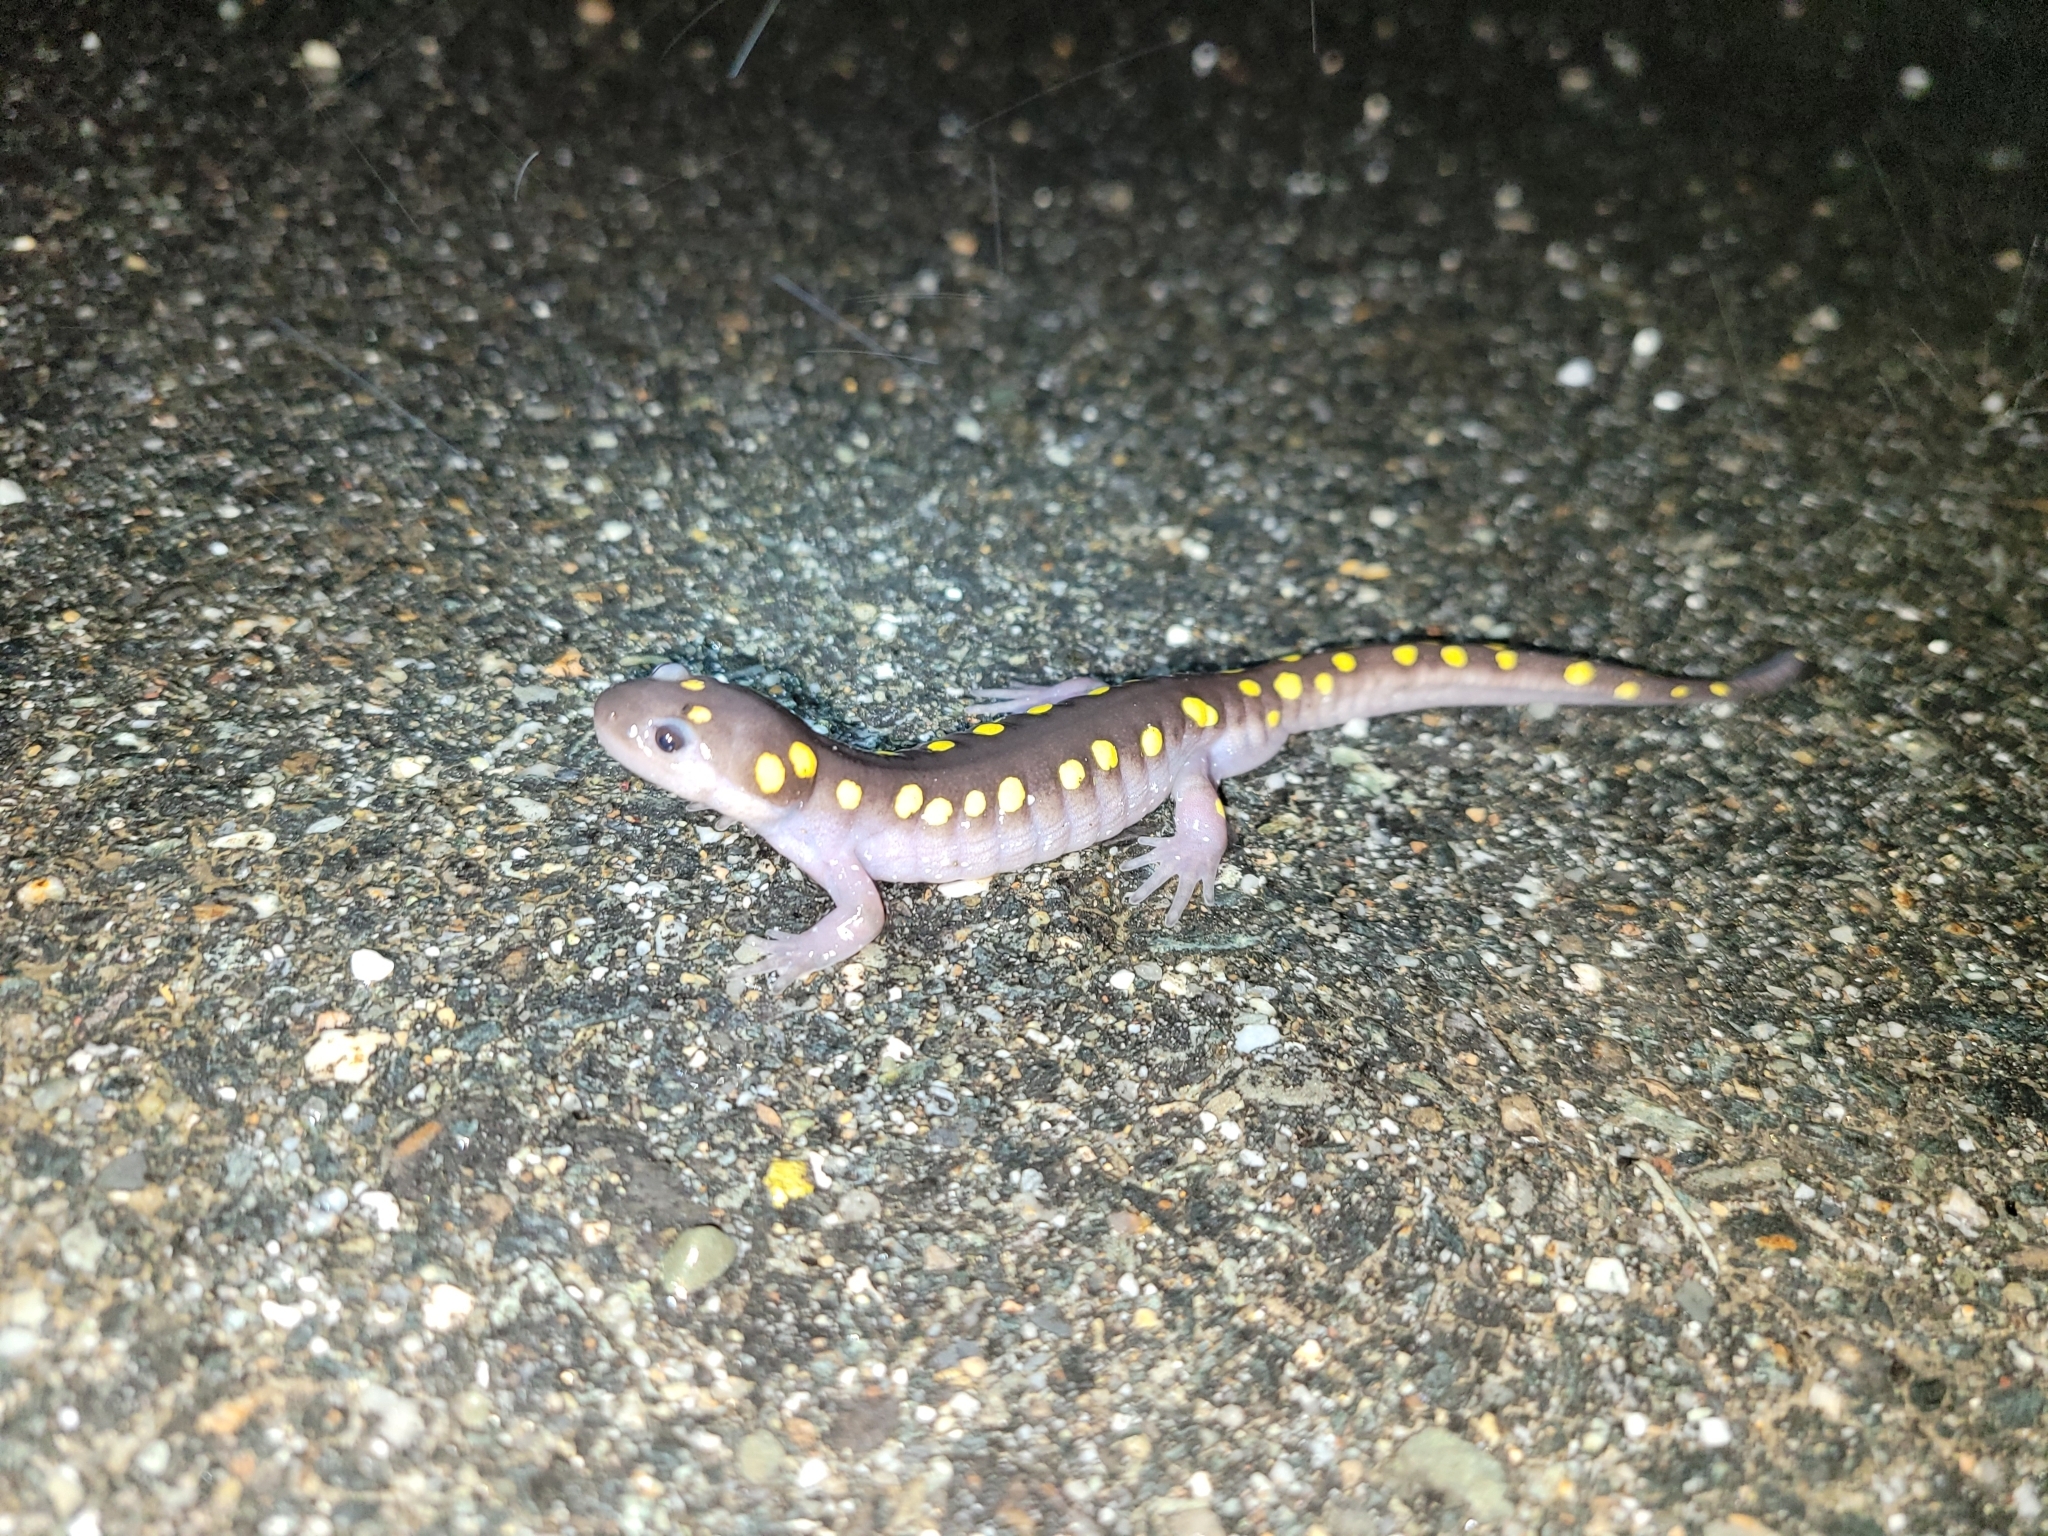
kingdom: Animalia
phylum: Chordata
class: Amphibia
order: Caudata
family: Ambystomatidae
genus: Ambystoma
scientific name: Ambystoma maculatum
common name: Spotted salamander
